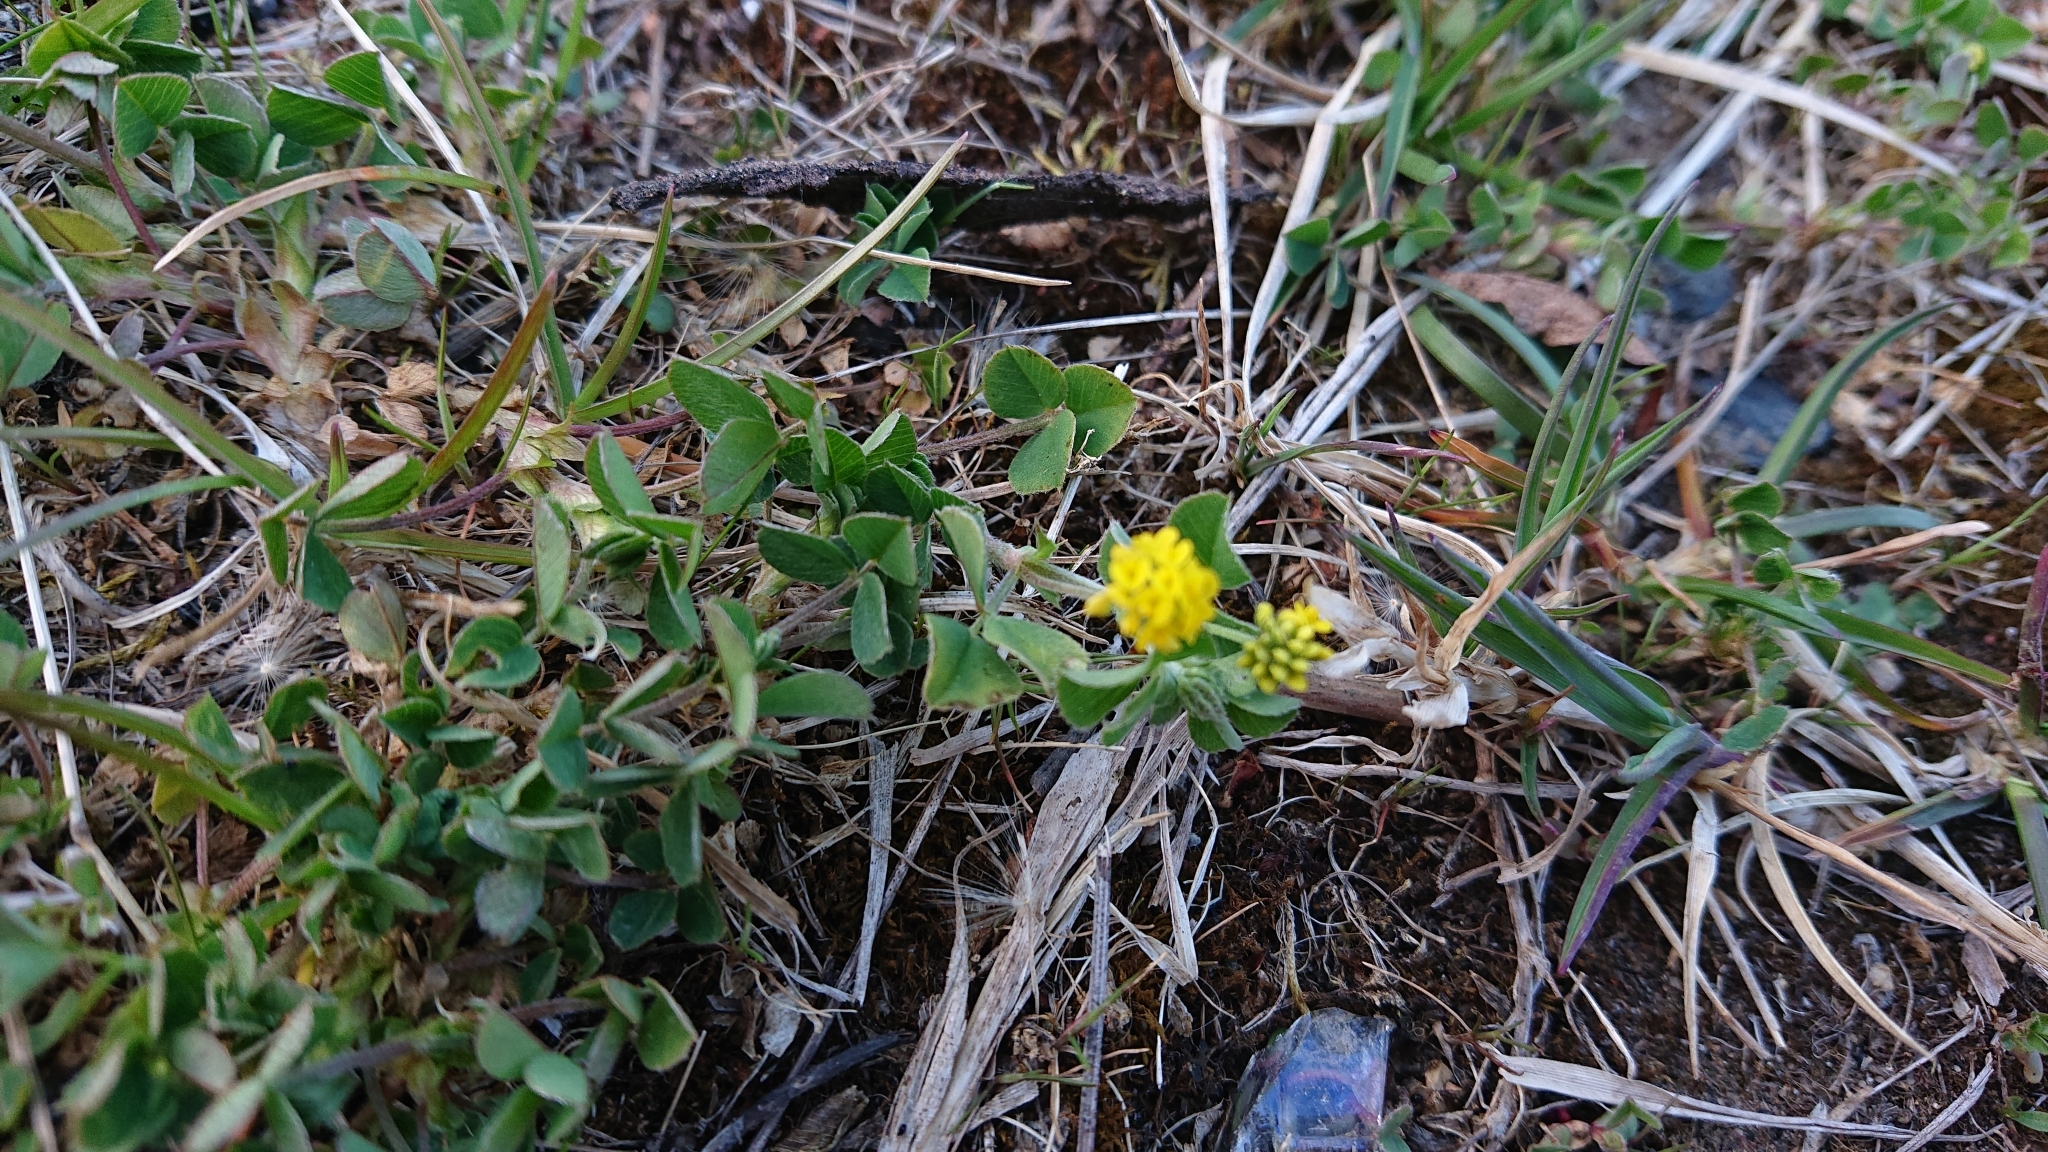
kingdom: Plantae
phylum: Tracheophyta
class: Magnoliopsida
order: Fabales
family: Fabaceae
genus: Medicago
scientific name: Medicago lupulina
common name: Black medick
